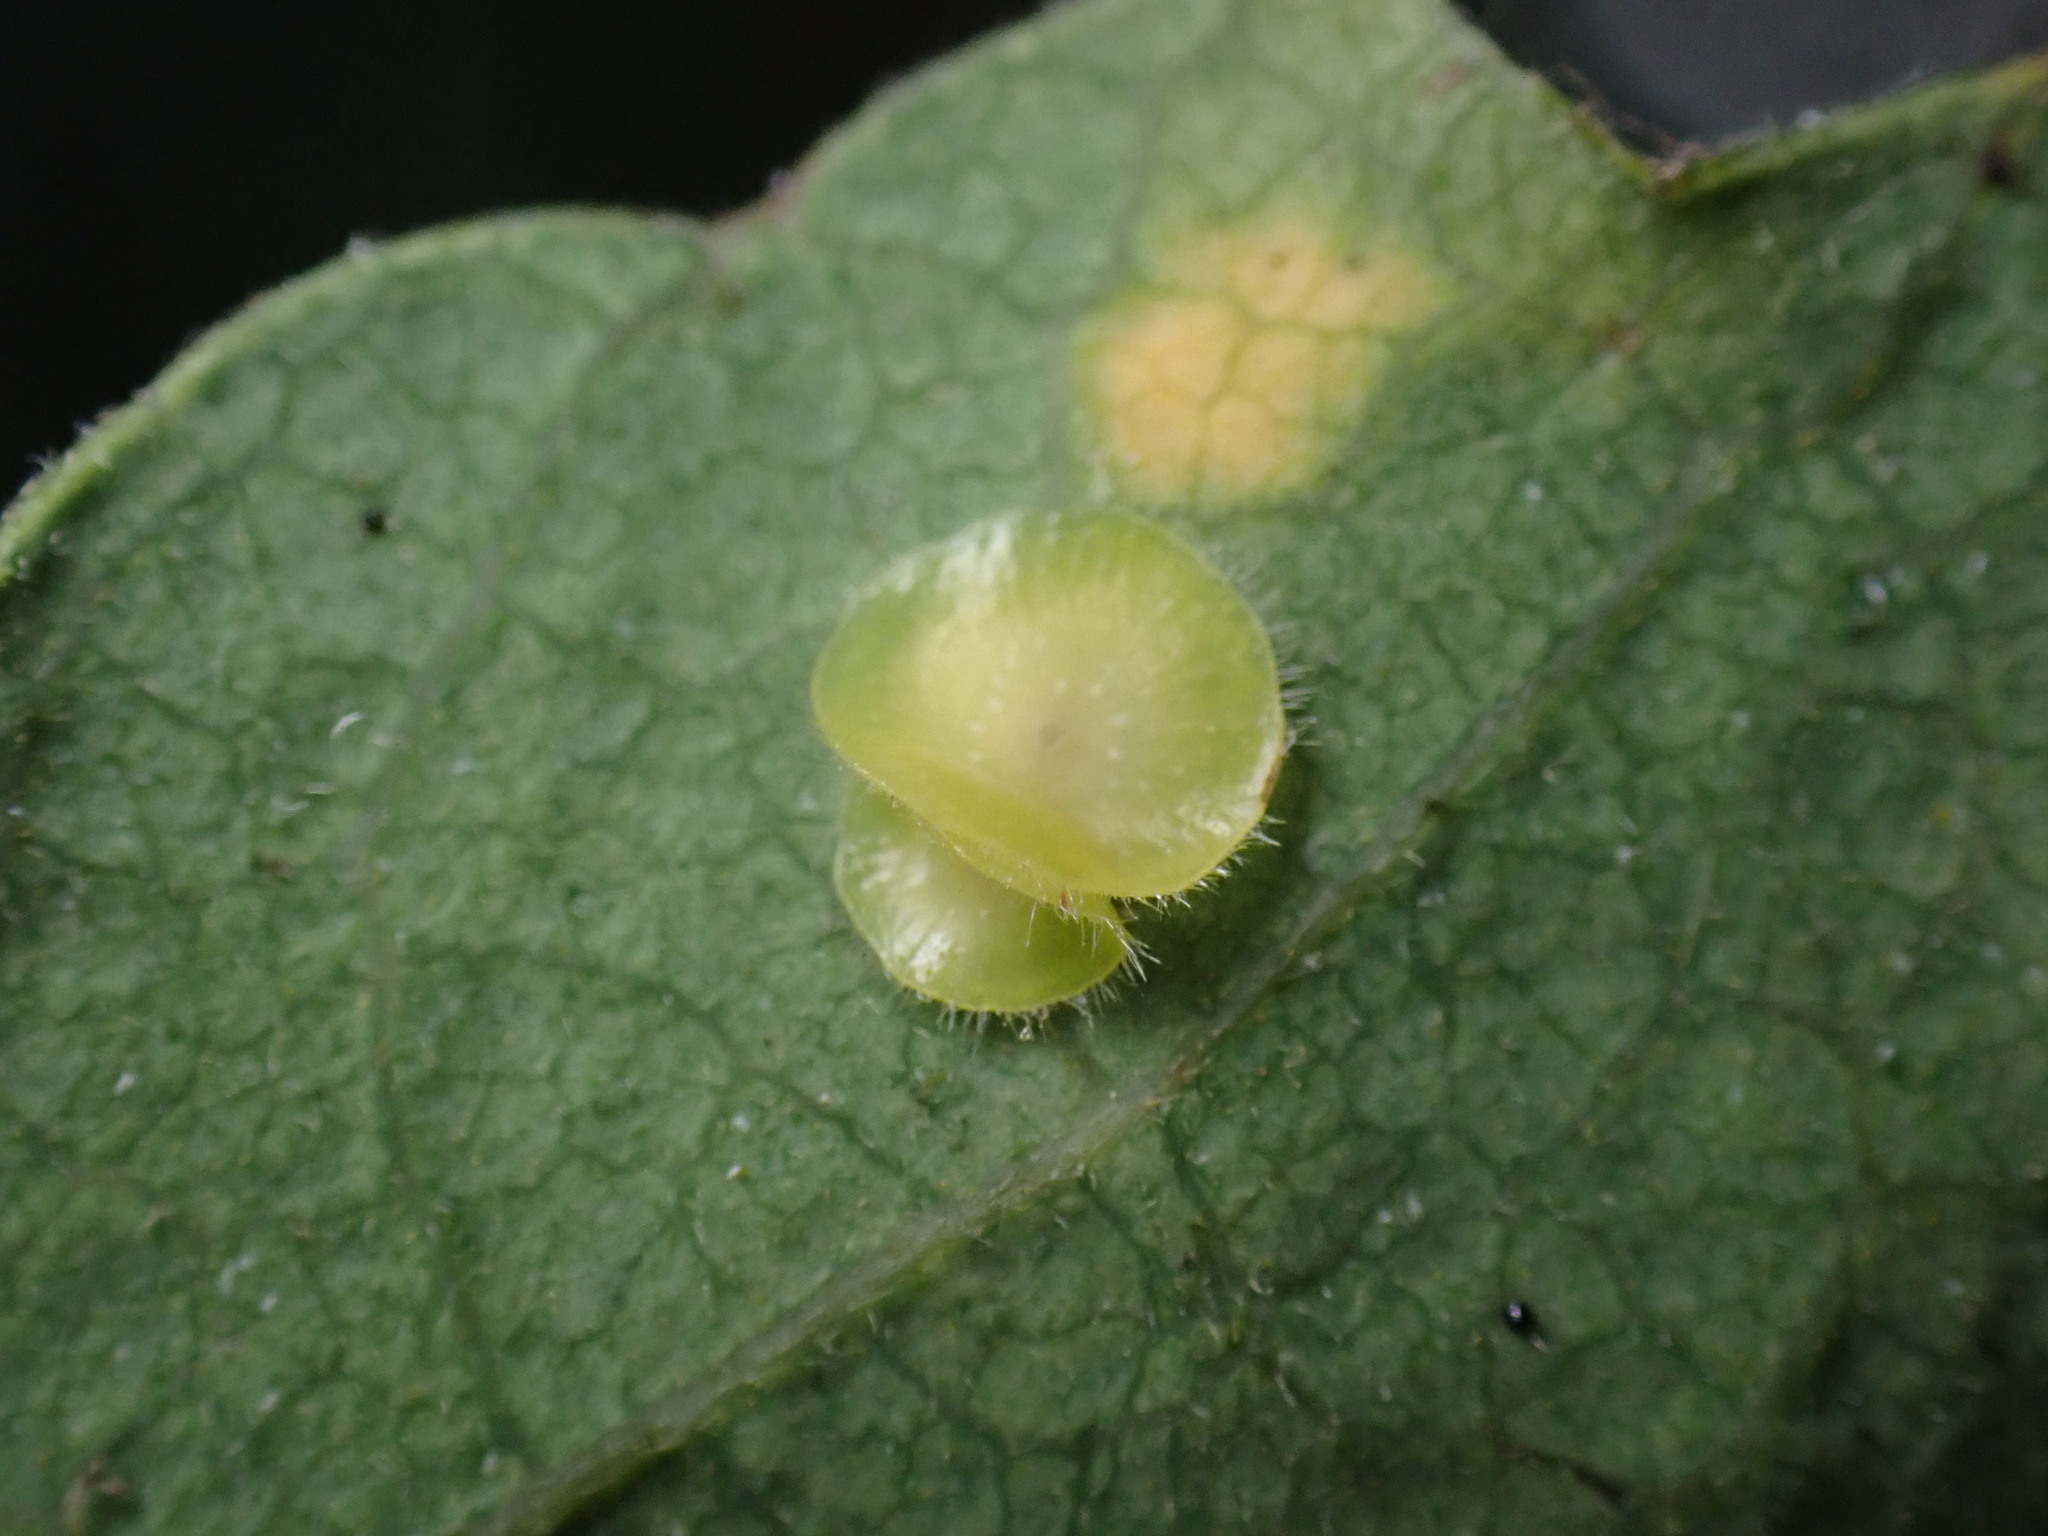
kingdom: Animalia
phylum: Arthropoda
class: Insecta
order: Hymenoptera
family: Cynipidae
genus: Andricus
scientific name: Andricus
